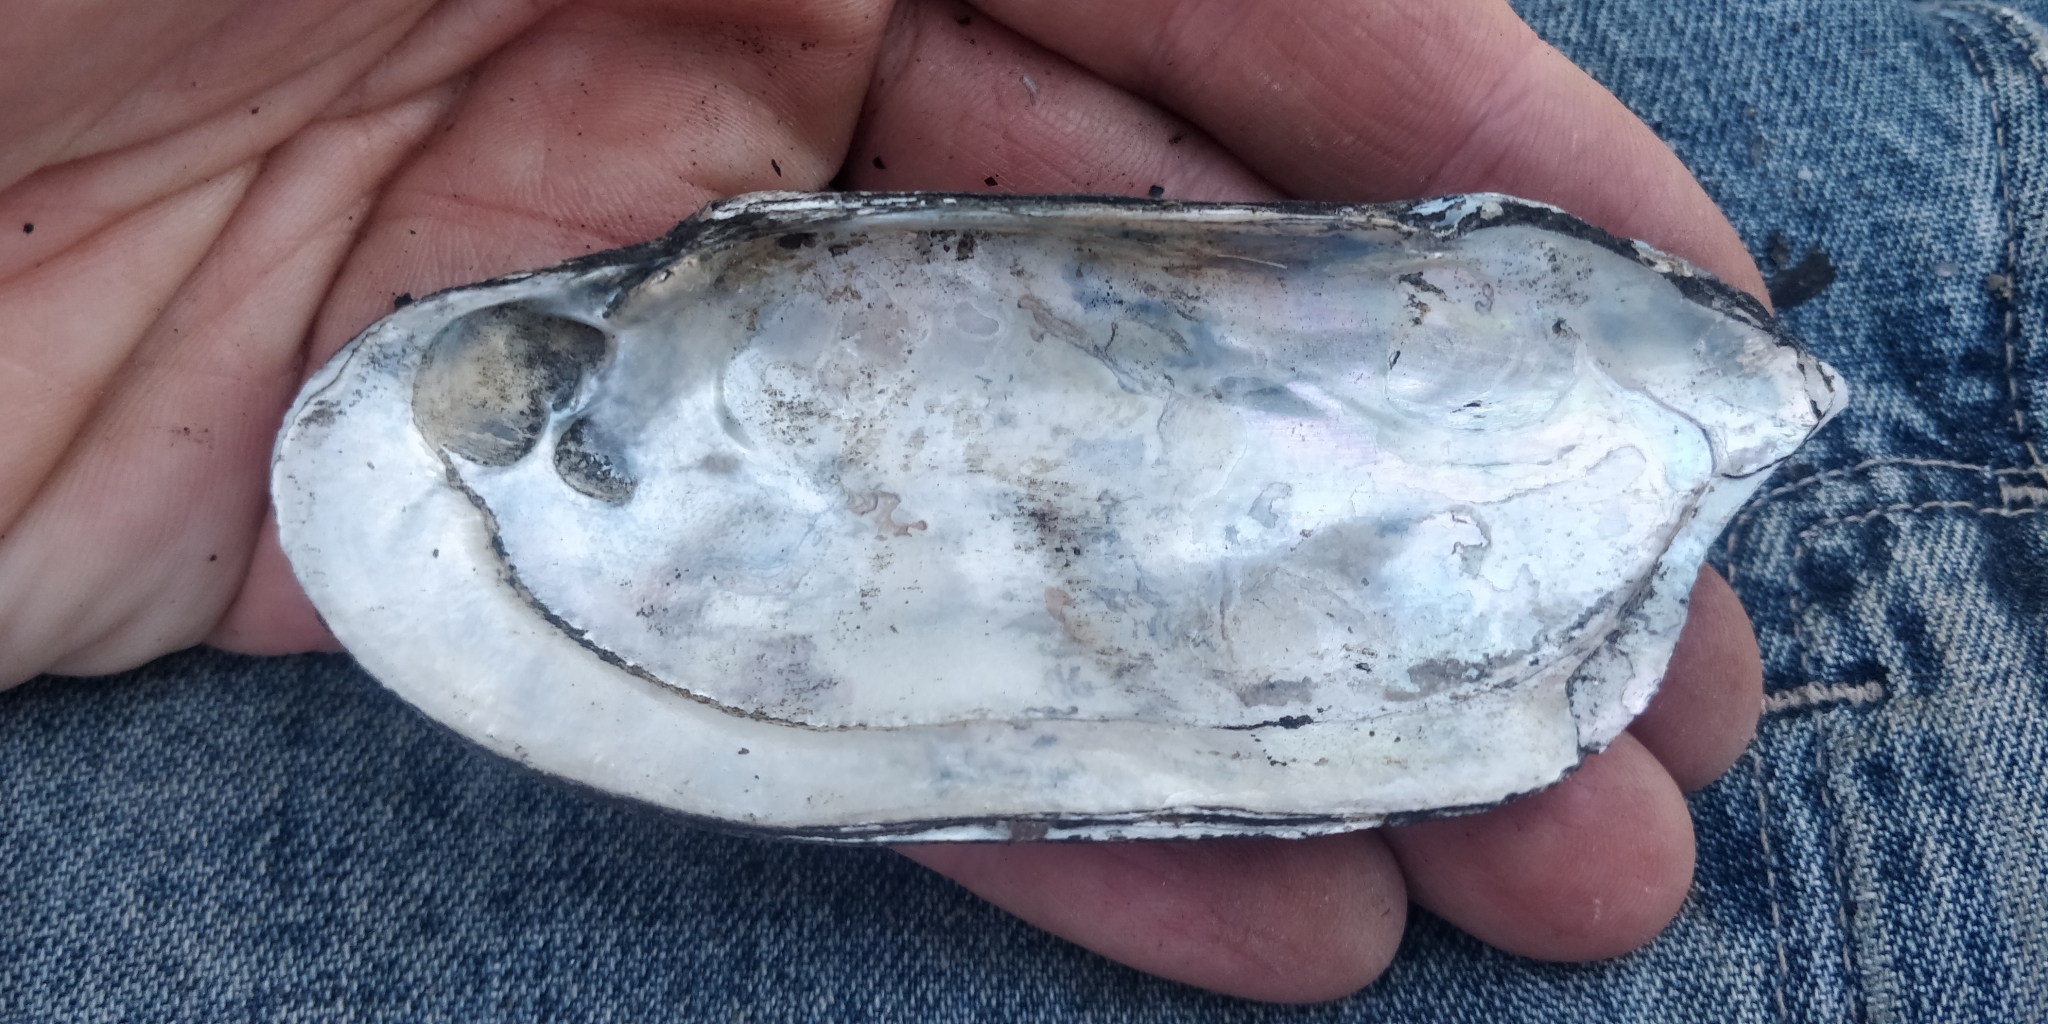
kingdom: Animalia
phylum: Mollusca
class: Bivalvia
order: Unionida
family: Unionidae
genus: Ligumia
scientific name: Ligumia recta
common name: Black sandshell
